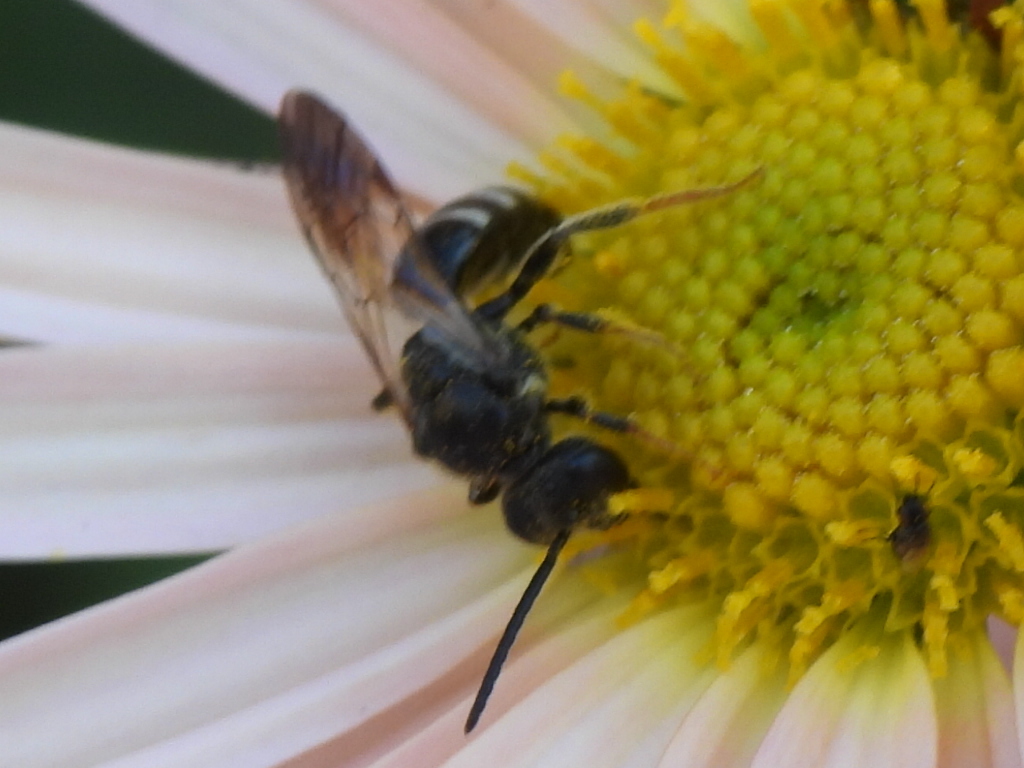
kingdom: Animalia
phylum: Arthropoda
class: Insecta
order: Hymenoptera
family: Halictidae
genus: Lasioglossum
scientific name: Lasioglossum fuscipenne
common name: Brown-winged sweat bee
